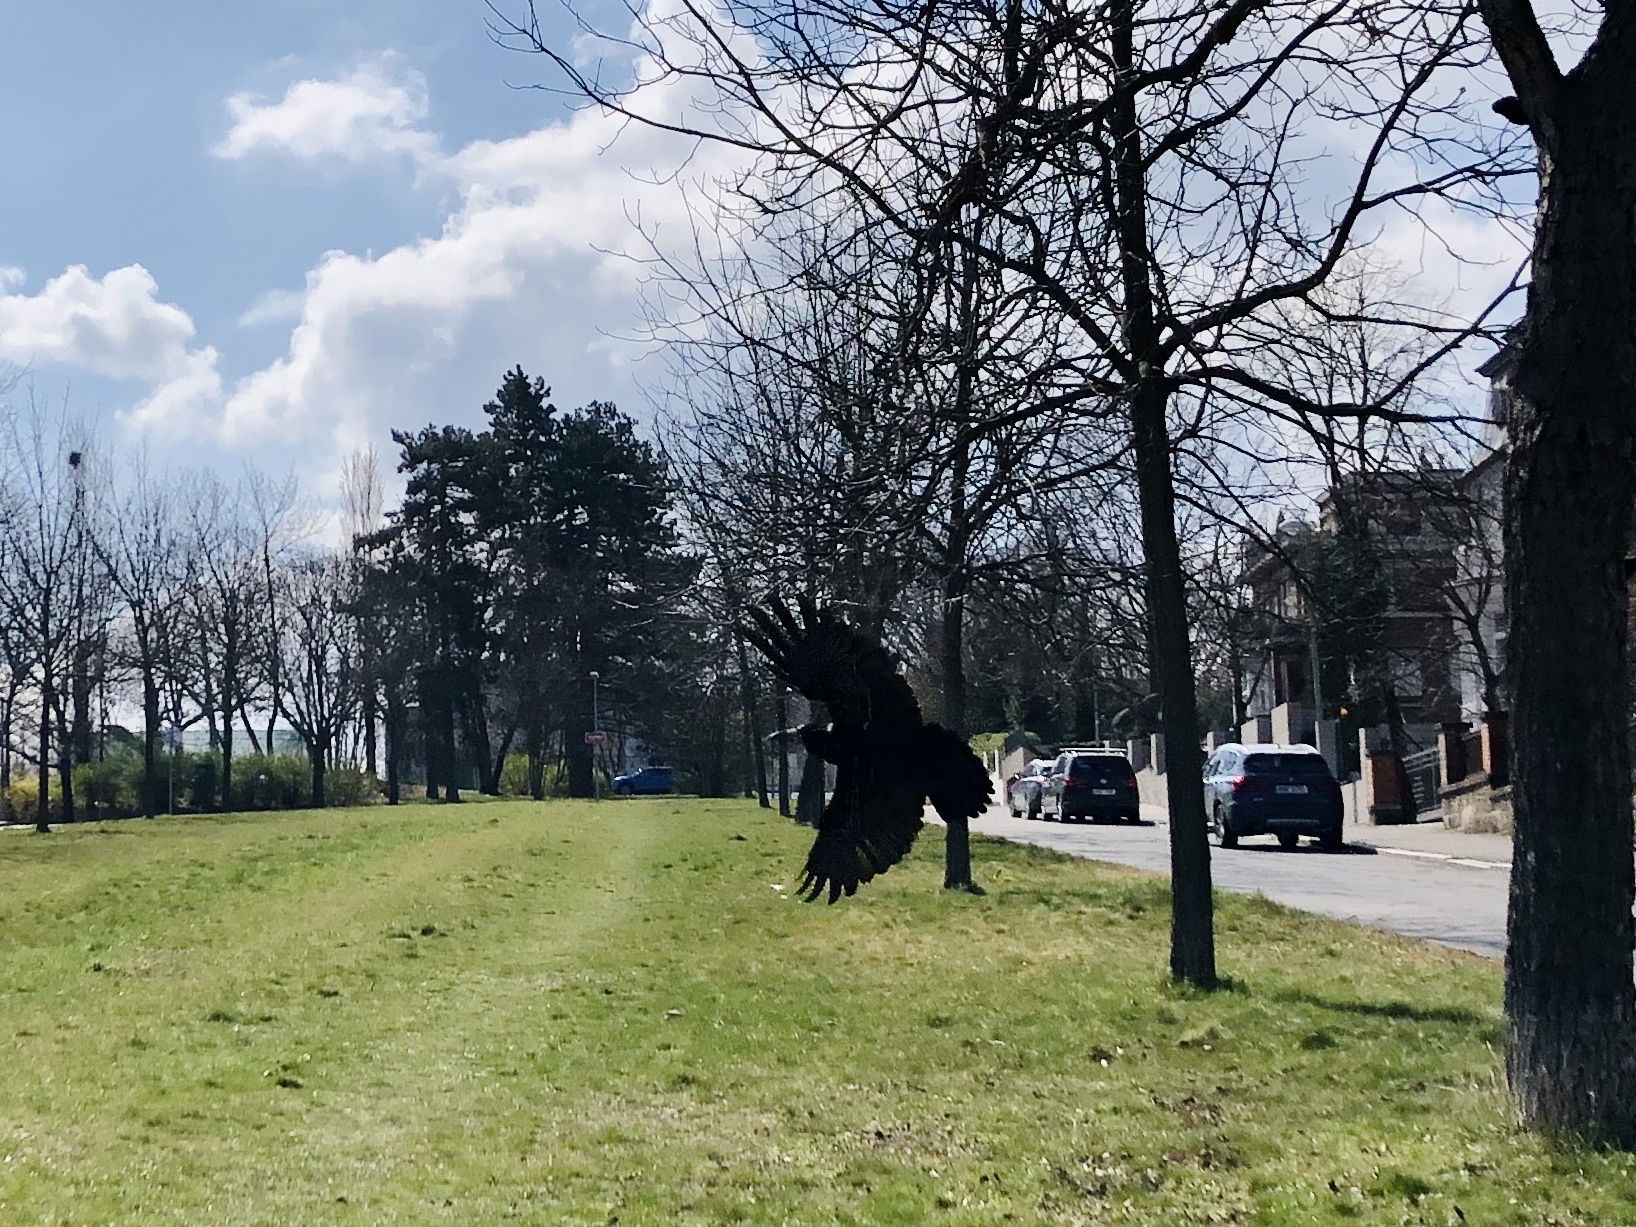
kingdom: Animalia
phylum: Chordata
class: Aves
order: Passeriformes
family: Corvidae
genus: Corvus
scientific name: Corvus frugilegus
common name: Rook
